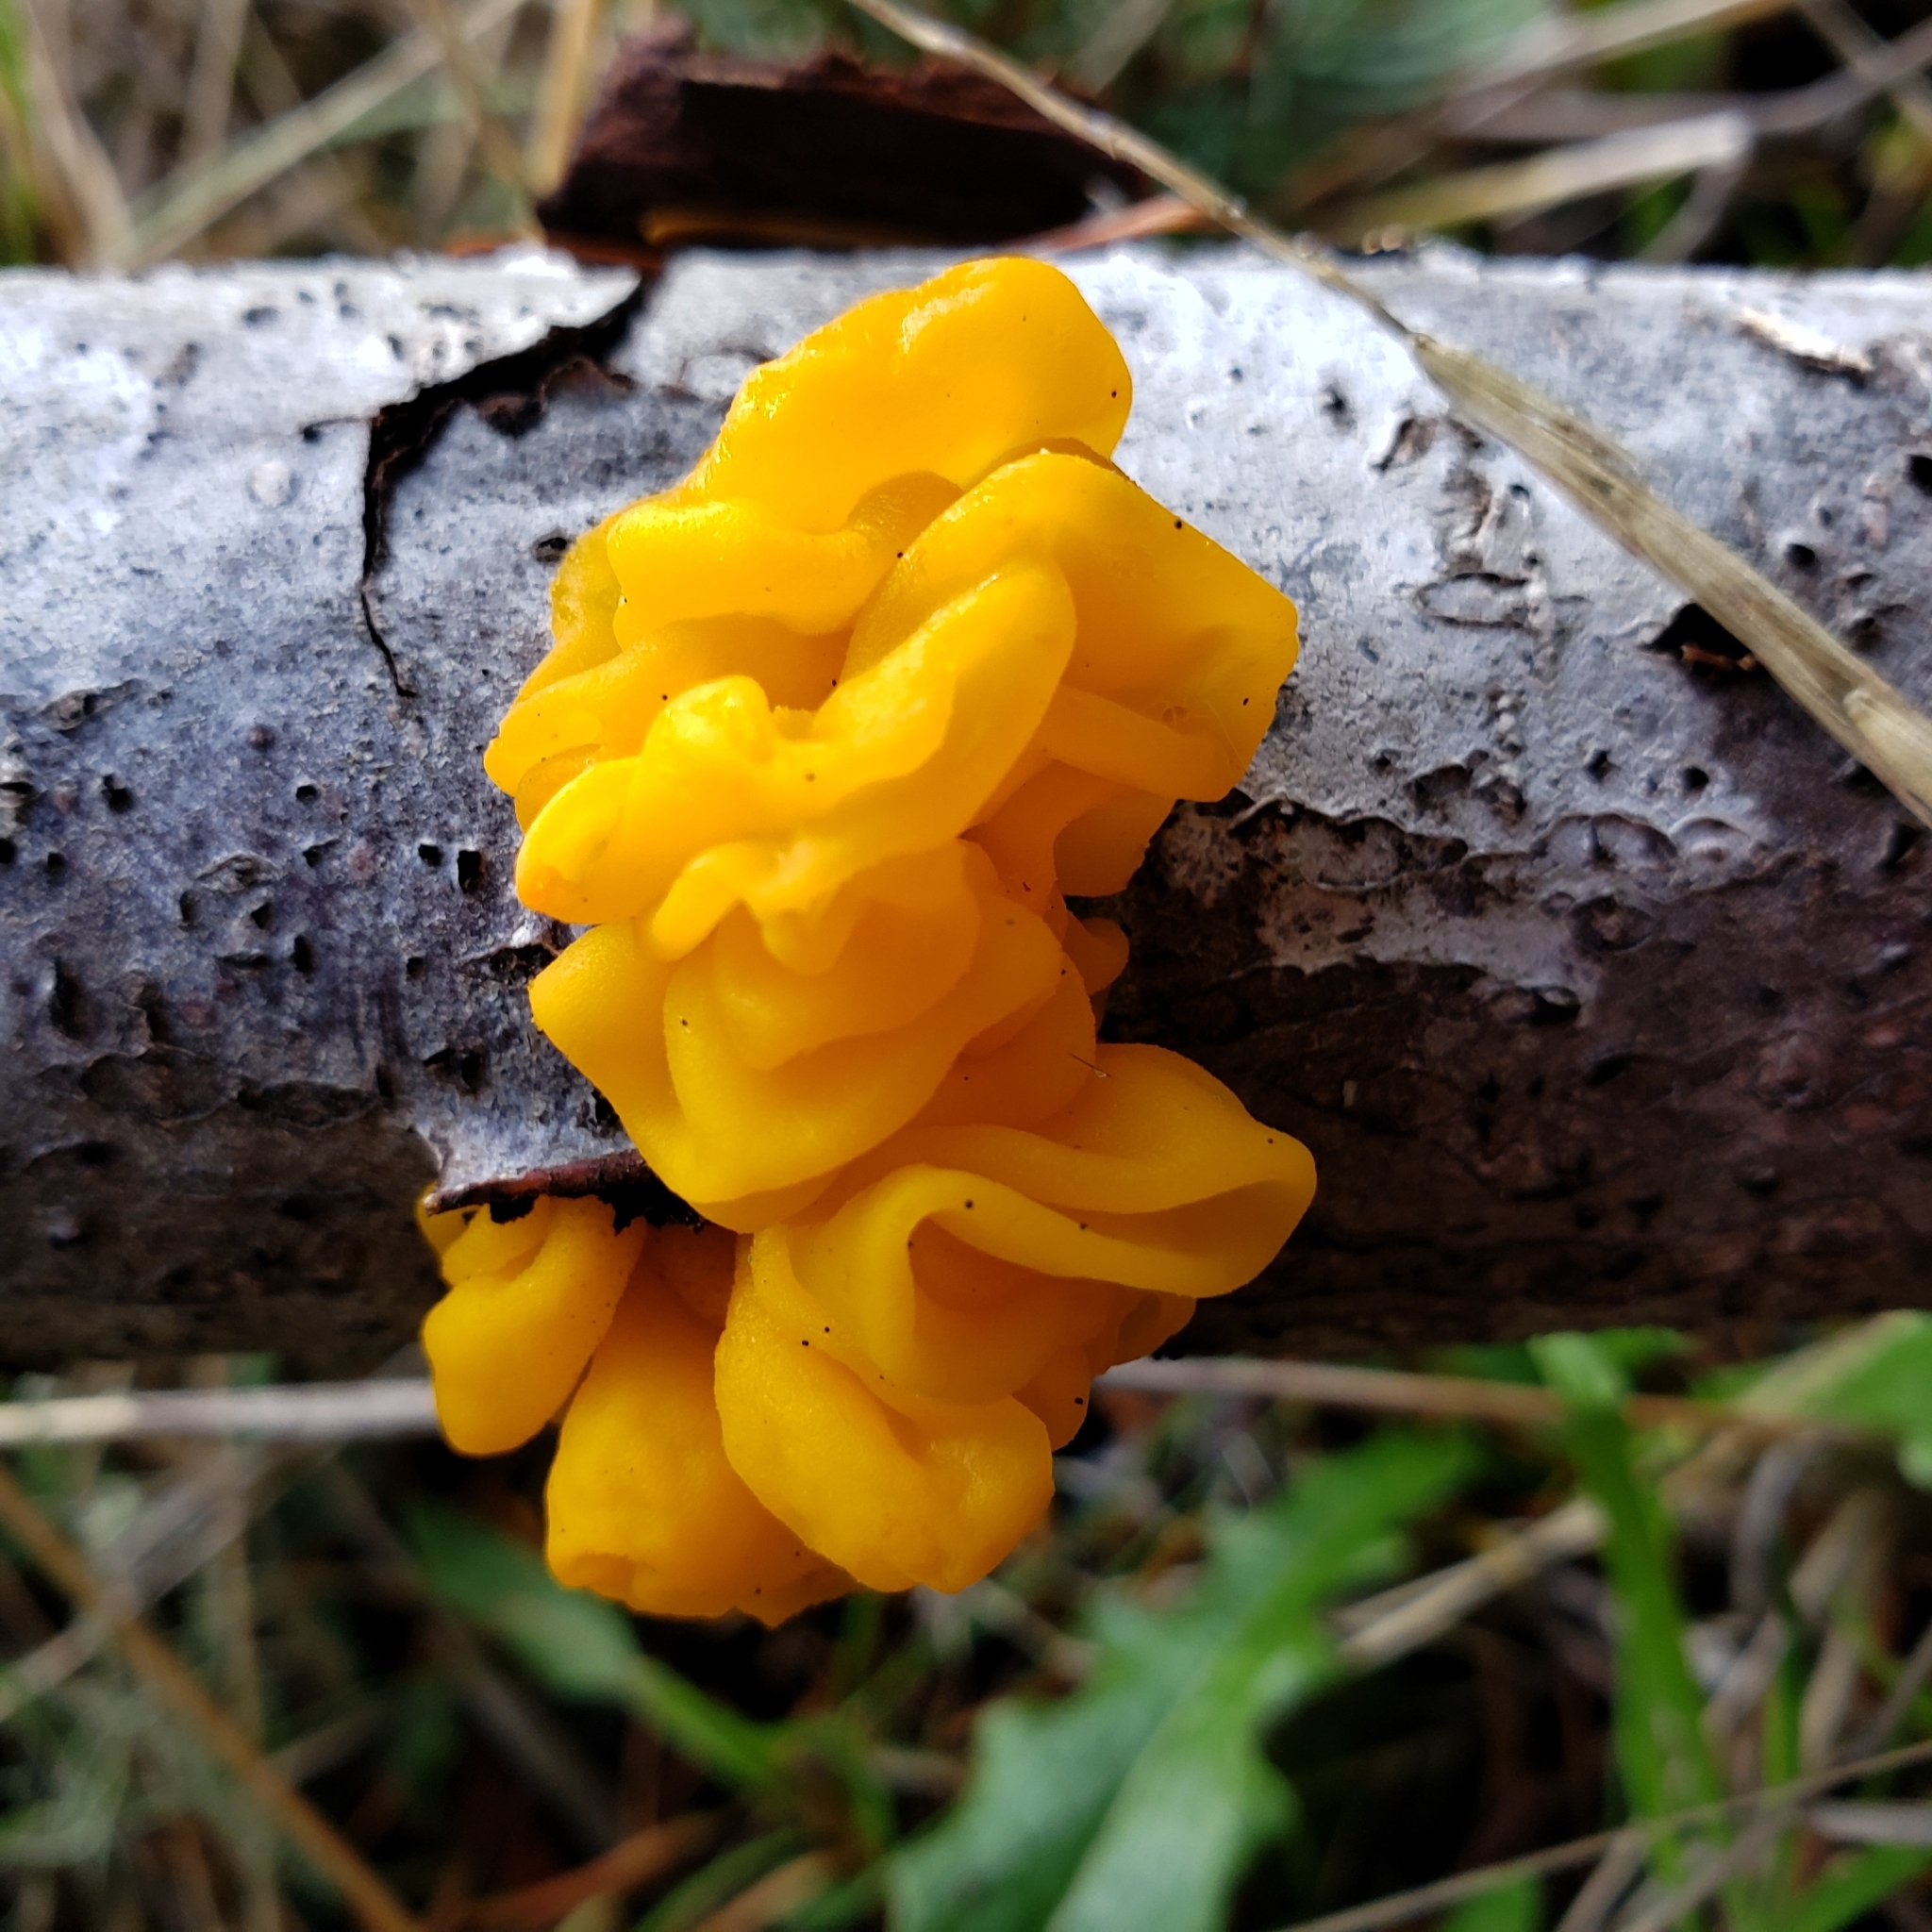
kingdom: Fungi
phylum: Basidiomycota
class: Tremellomycetes
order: Tremellales
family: Tremellaceae
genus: Tremella
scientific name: Tremella mesenterica
